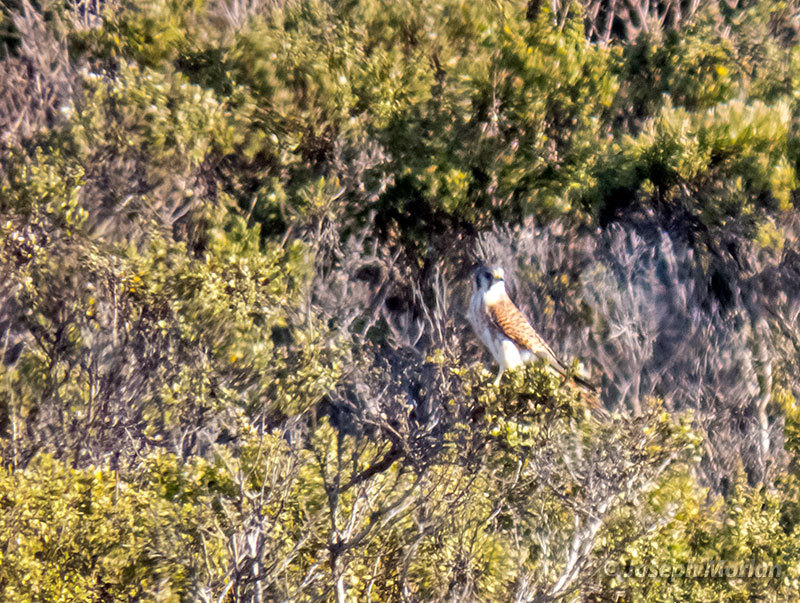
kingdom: Animalia
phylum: Chordata
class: Aves
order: Falconiformes
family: Falconidae
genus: Falco
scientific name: Falco sparverius
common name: American kestrel
